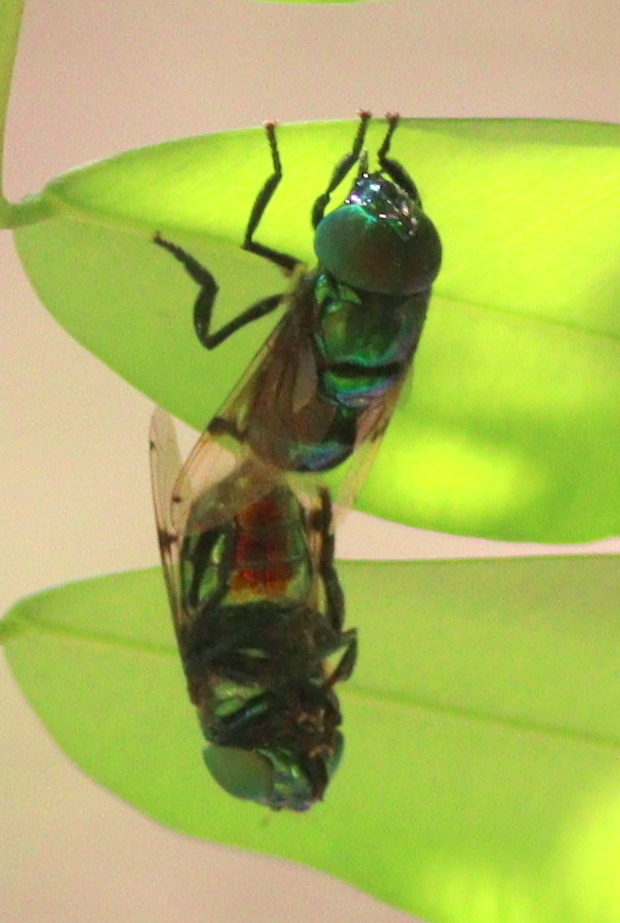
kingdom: Animalia
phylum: Arthropoda
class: Insecta
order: Diptera
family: Syrphidae
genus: Ornidia
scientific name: Ornidia obesa
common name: Syrphid fly
